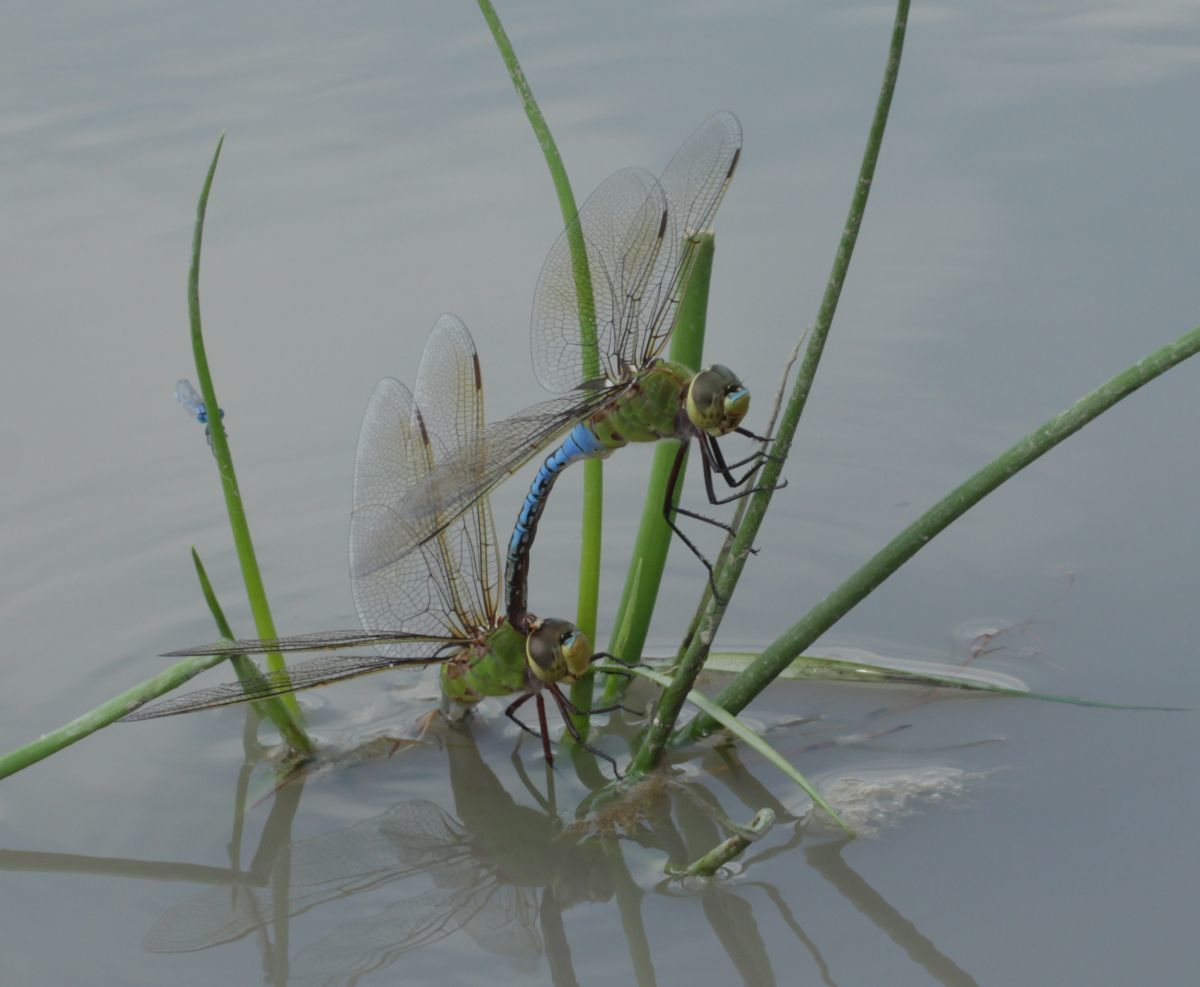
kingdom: Animalia
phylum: Arthropoda
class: Insecta
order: Odonata
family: Aeshnidae
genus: Anax
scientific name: Anax junius
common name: Common green darner
